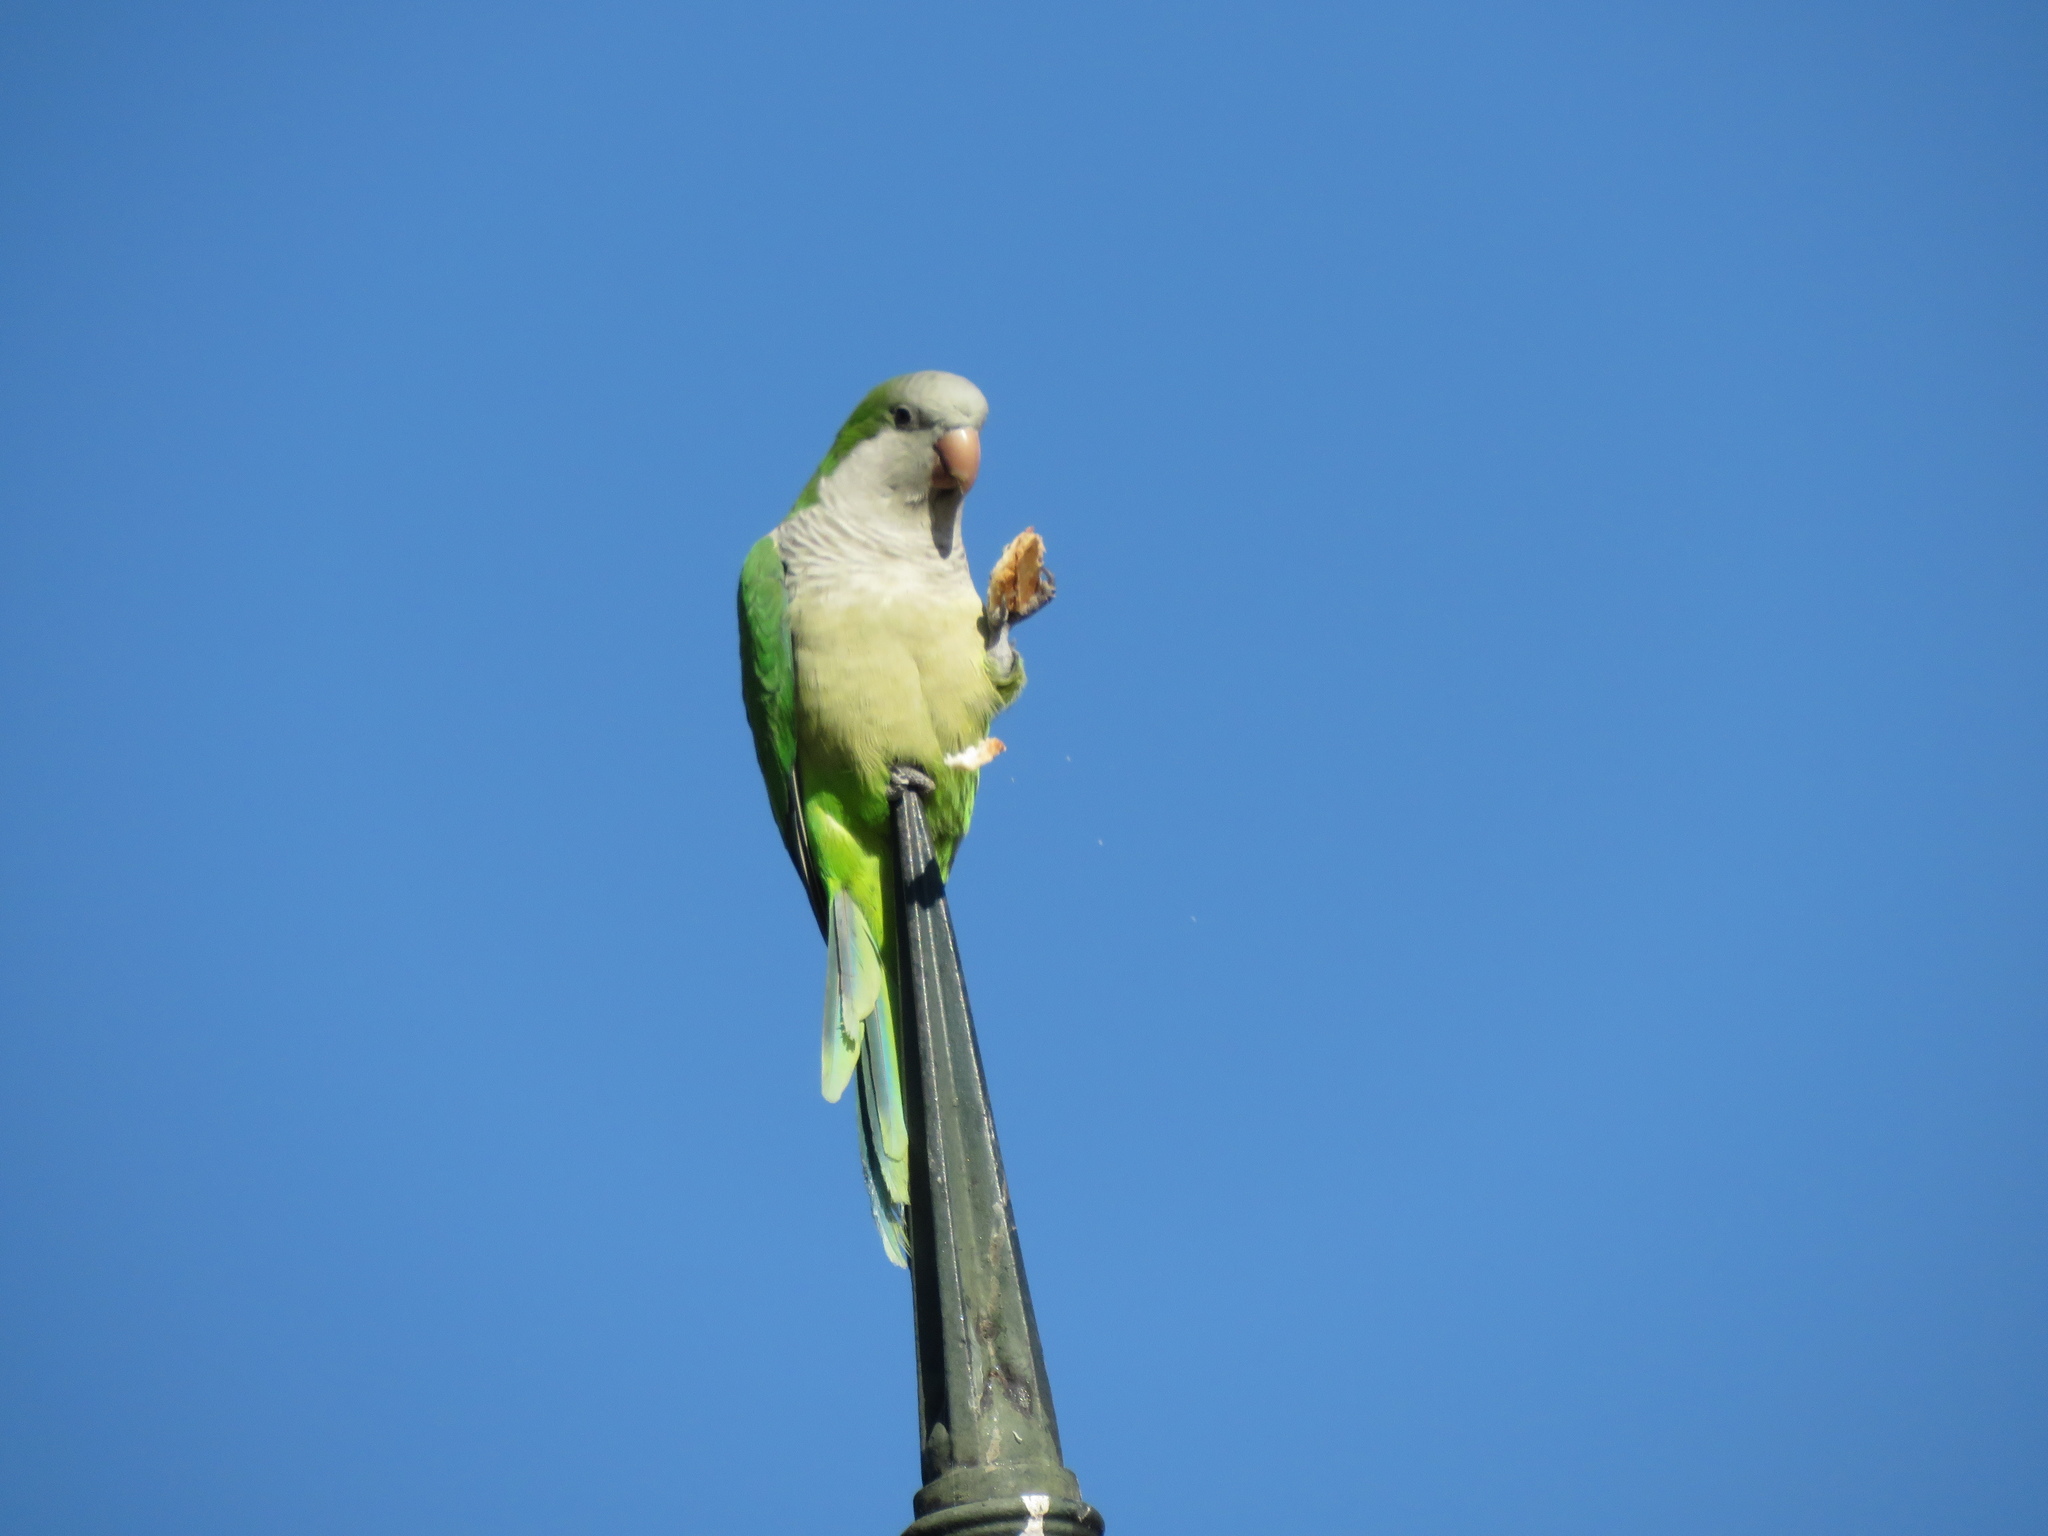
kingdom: Animalia
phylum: Chordata
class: Aves
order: Psittaciformes
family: Psittacidae
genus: Myiopsitta
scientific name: Myiopsitta monachus
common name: Monk parakeet
